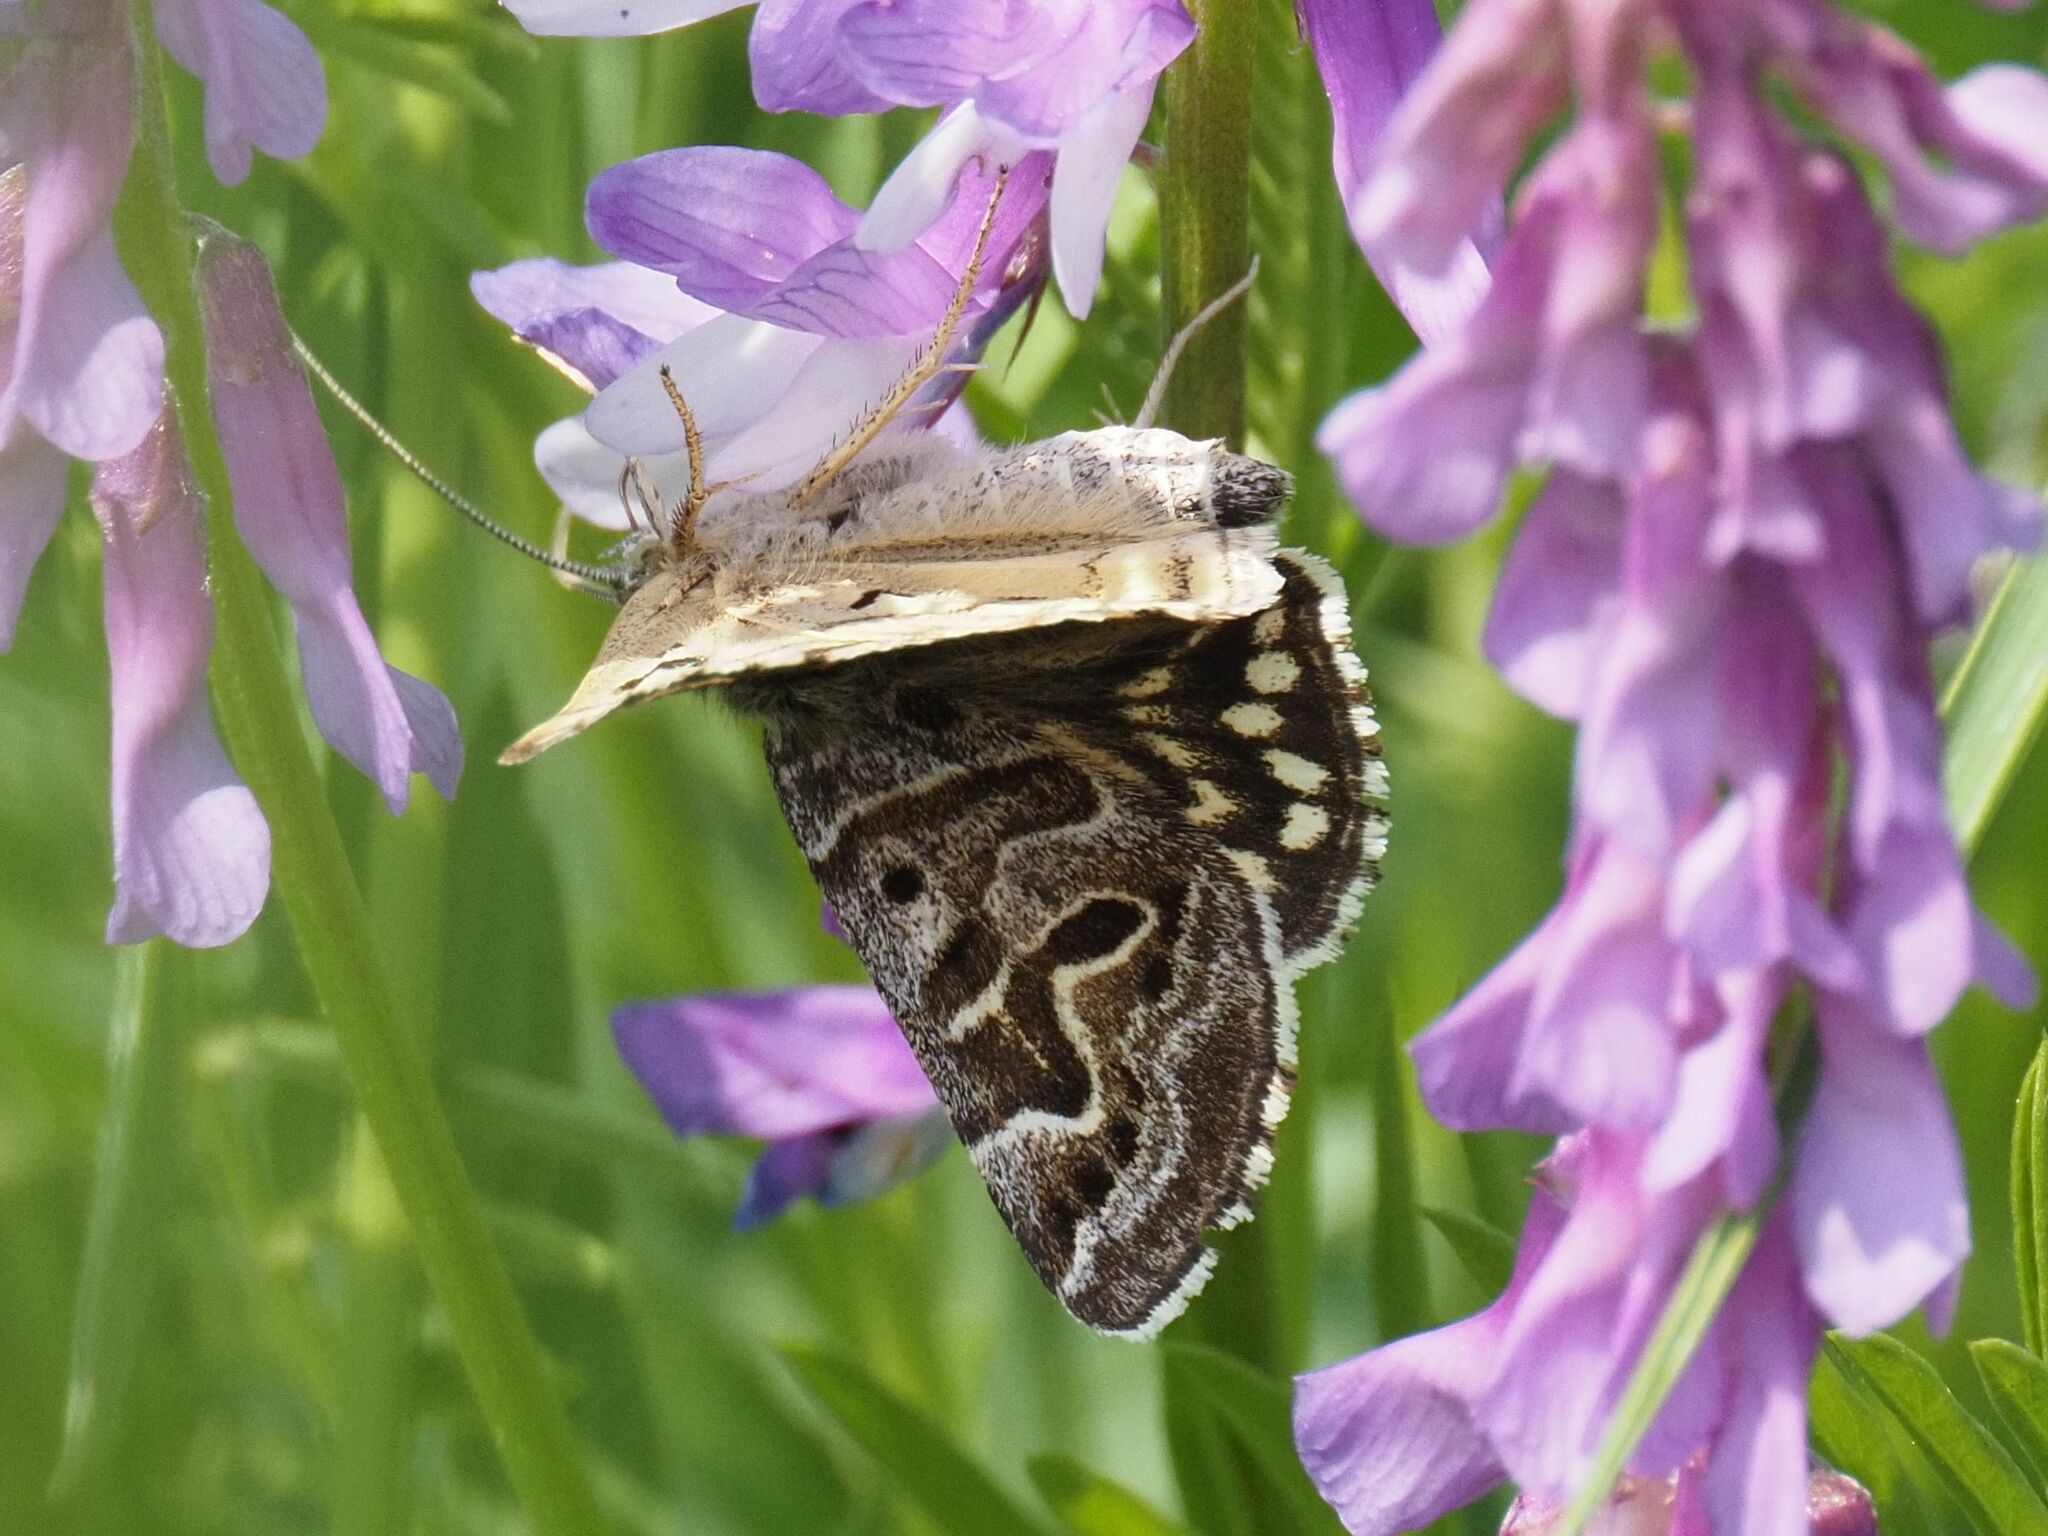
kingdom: Animalia
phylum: Arthropoda
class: Insecta
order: Lepidoptera
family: Erebidae
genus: Callistege
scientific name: Callistege mi
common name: Mother shipton
